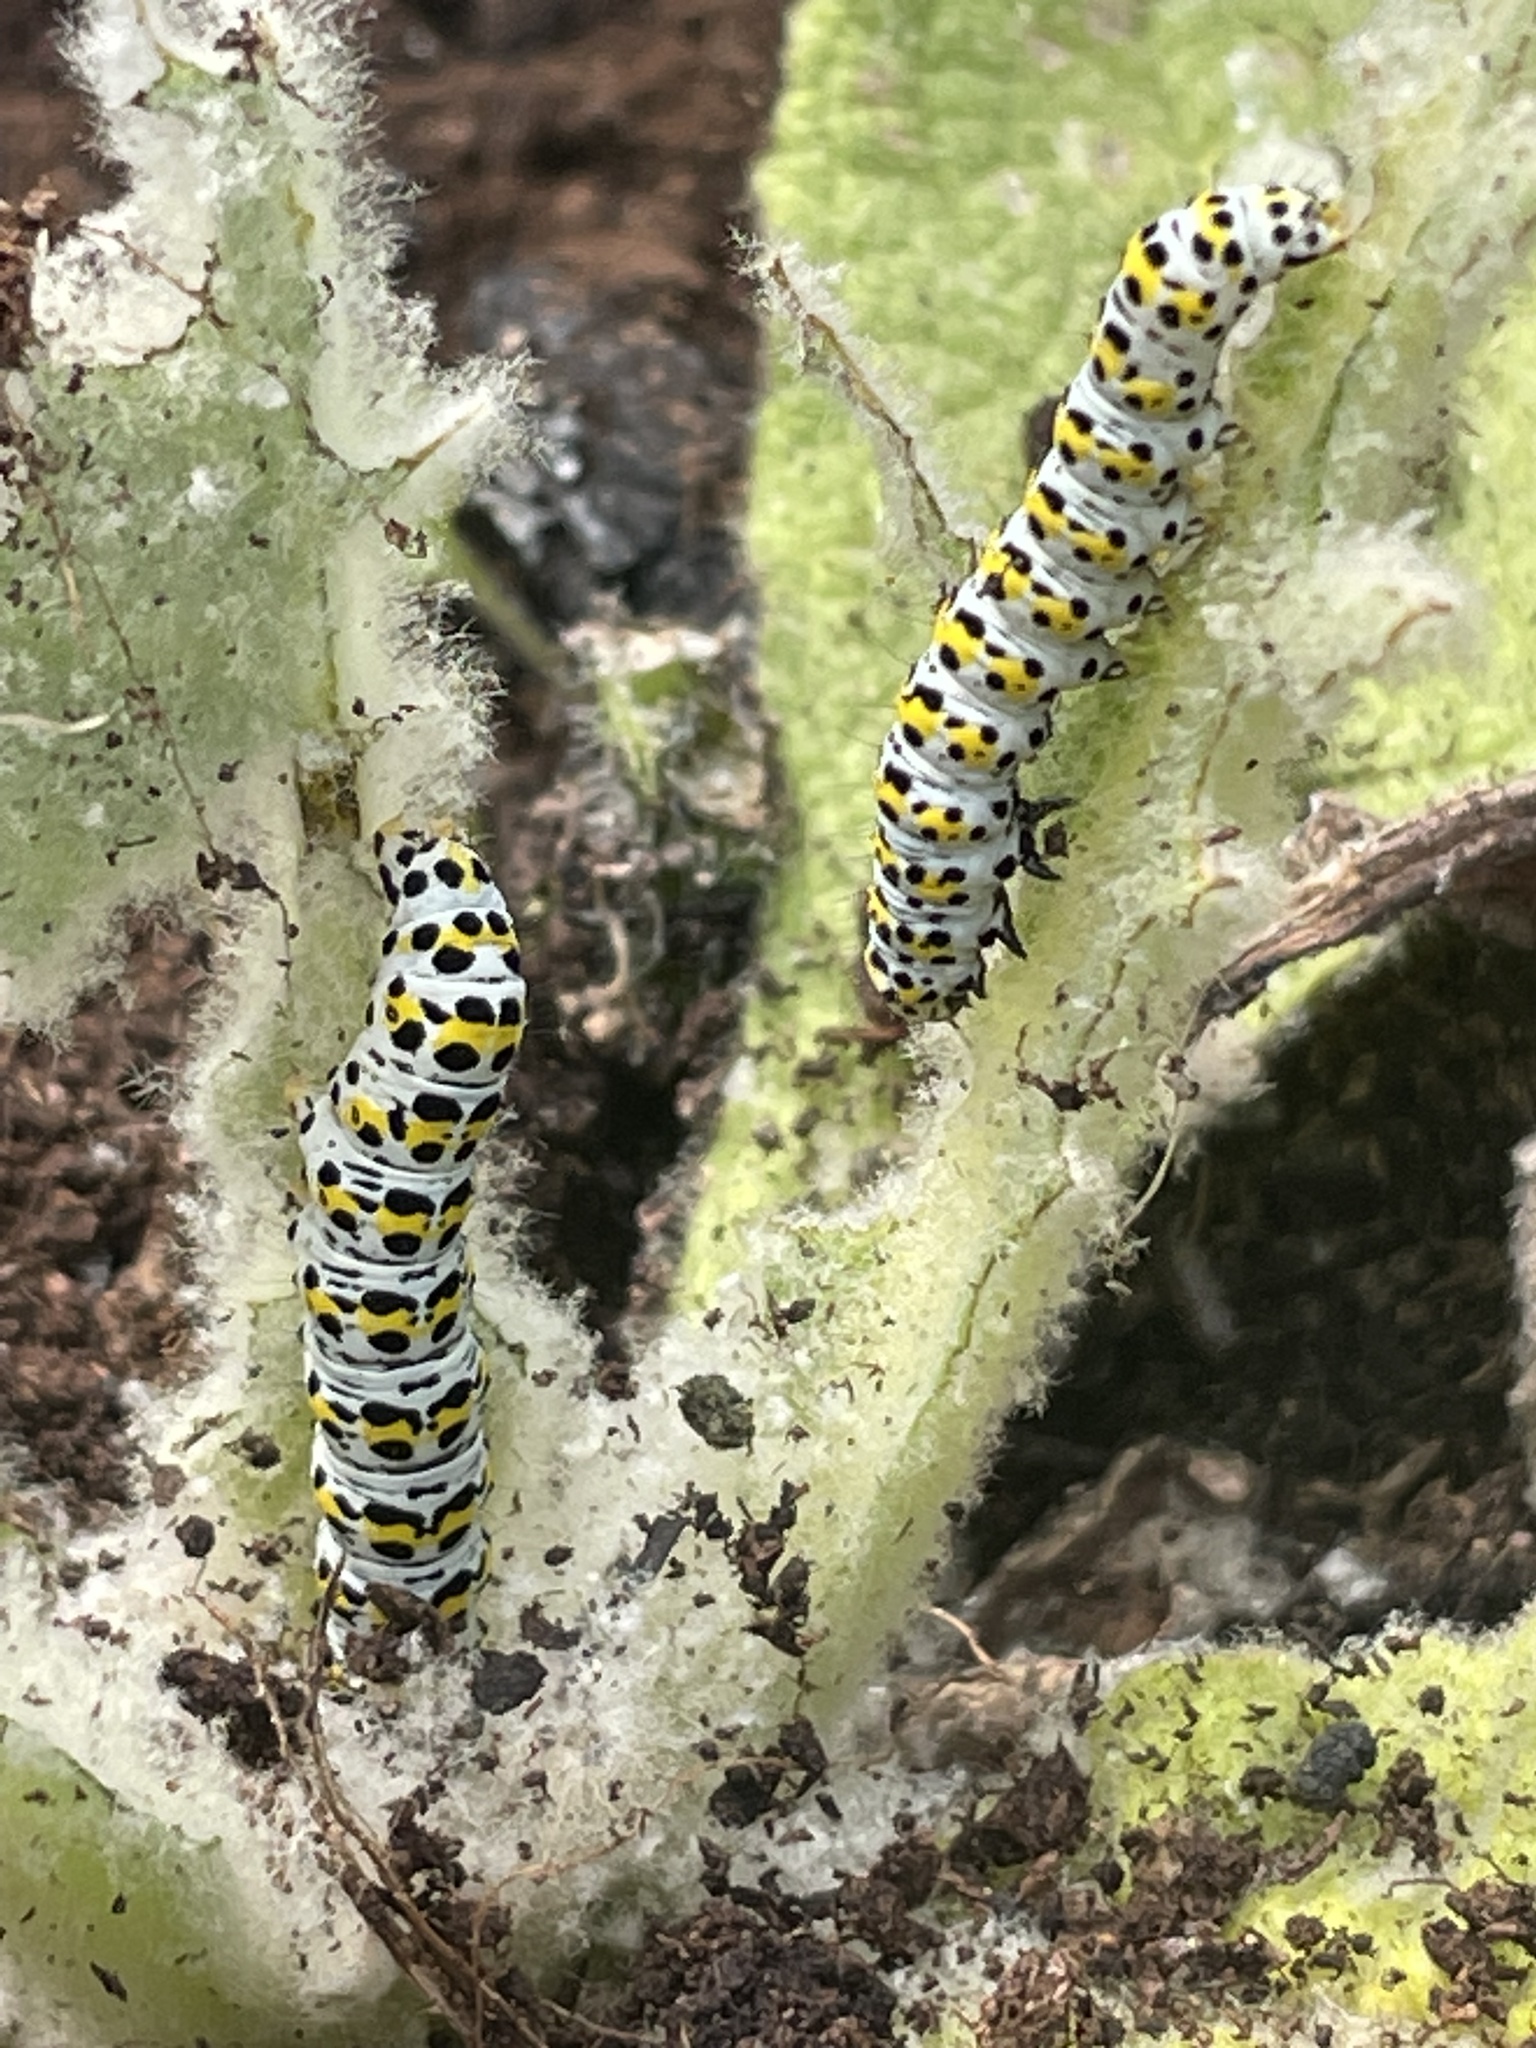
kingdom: Animalia
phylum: Arthropoda
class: Insecta
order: Lepidoptera
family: Noctuidae
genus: Cucullia
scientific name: Cucullia verbasci
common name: Mullein
